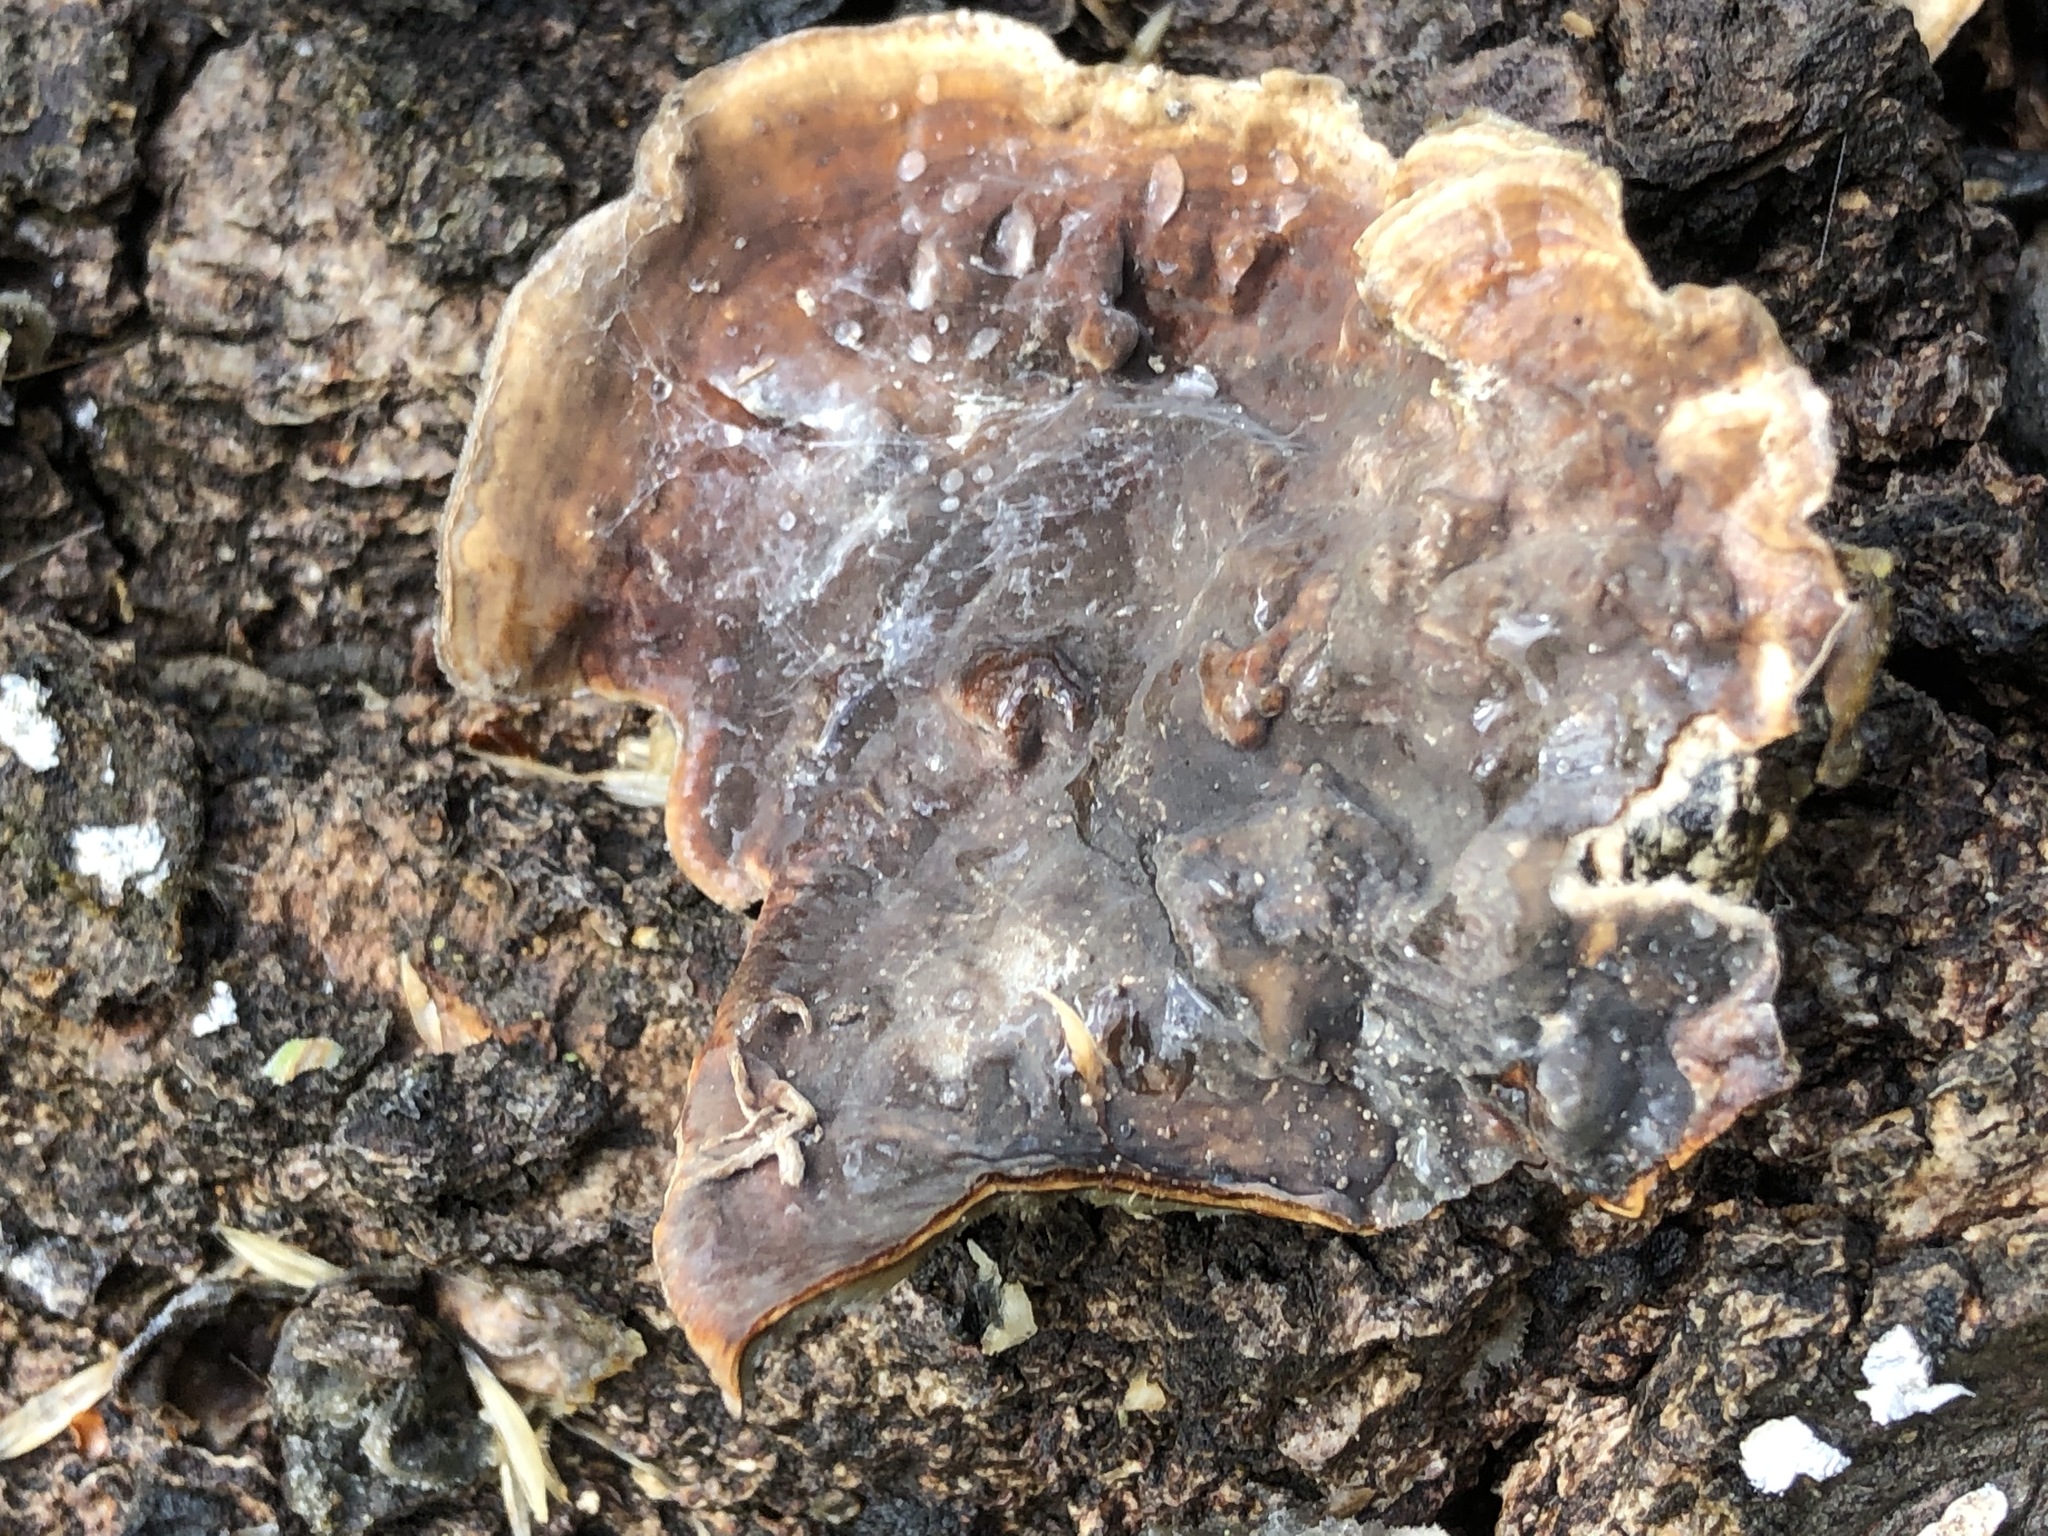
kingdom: Fungi
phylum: Basidiomycota
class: Agaricomycetes
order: Russulales
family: Stereaceae
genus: Stereum
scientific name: Stereum hirsutum
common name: Hairy curtain crust
